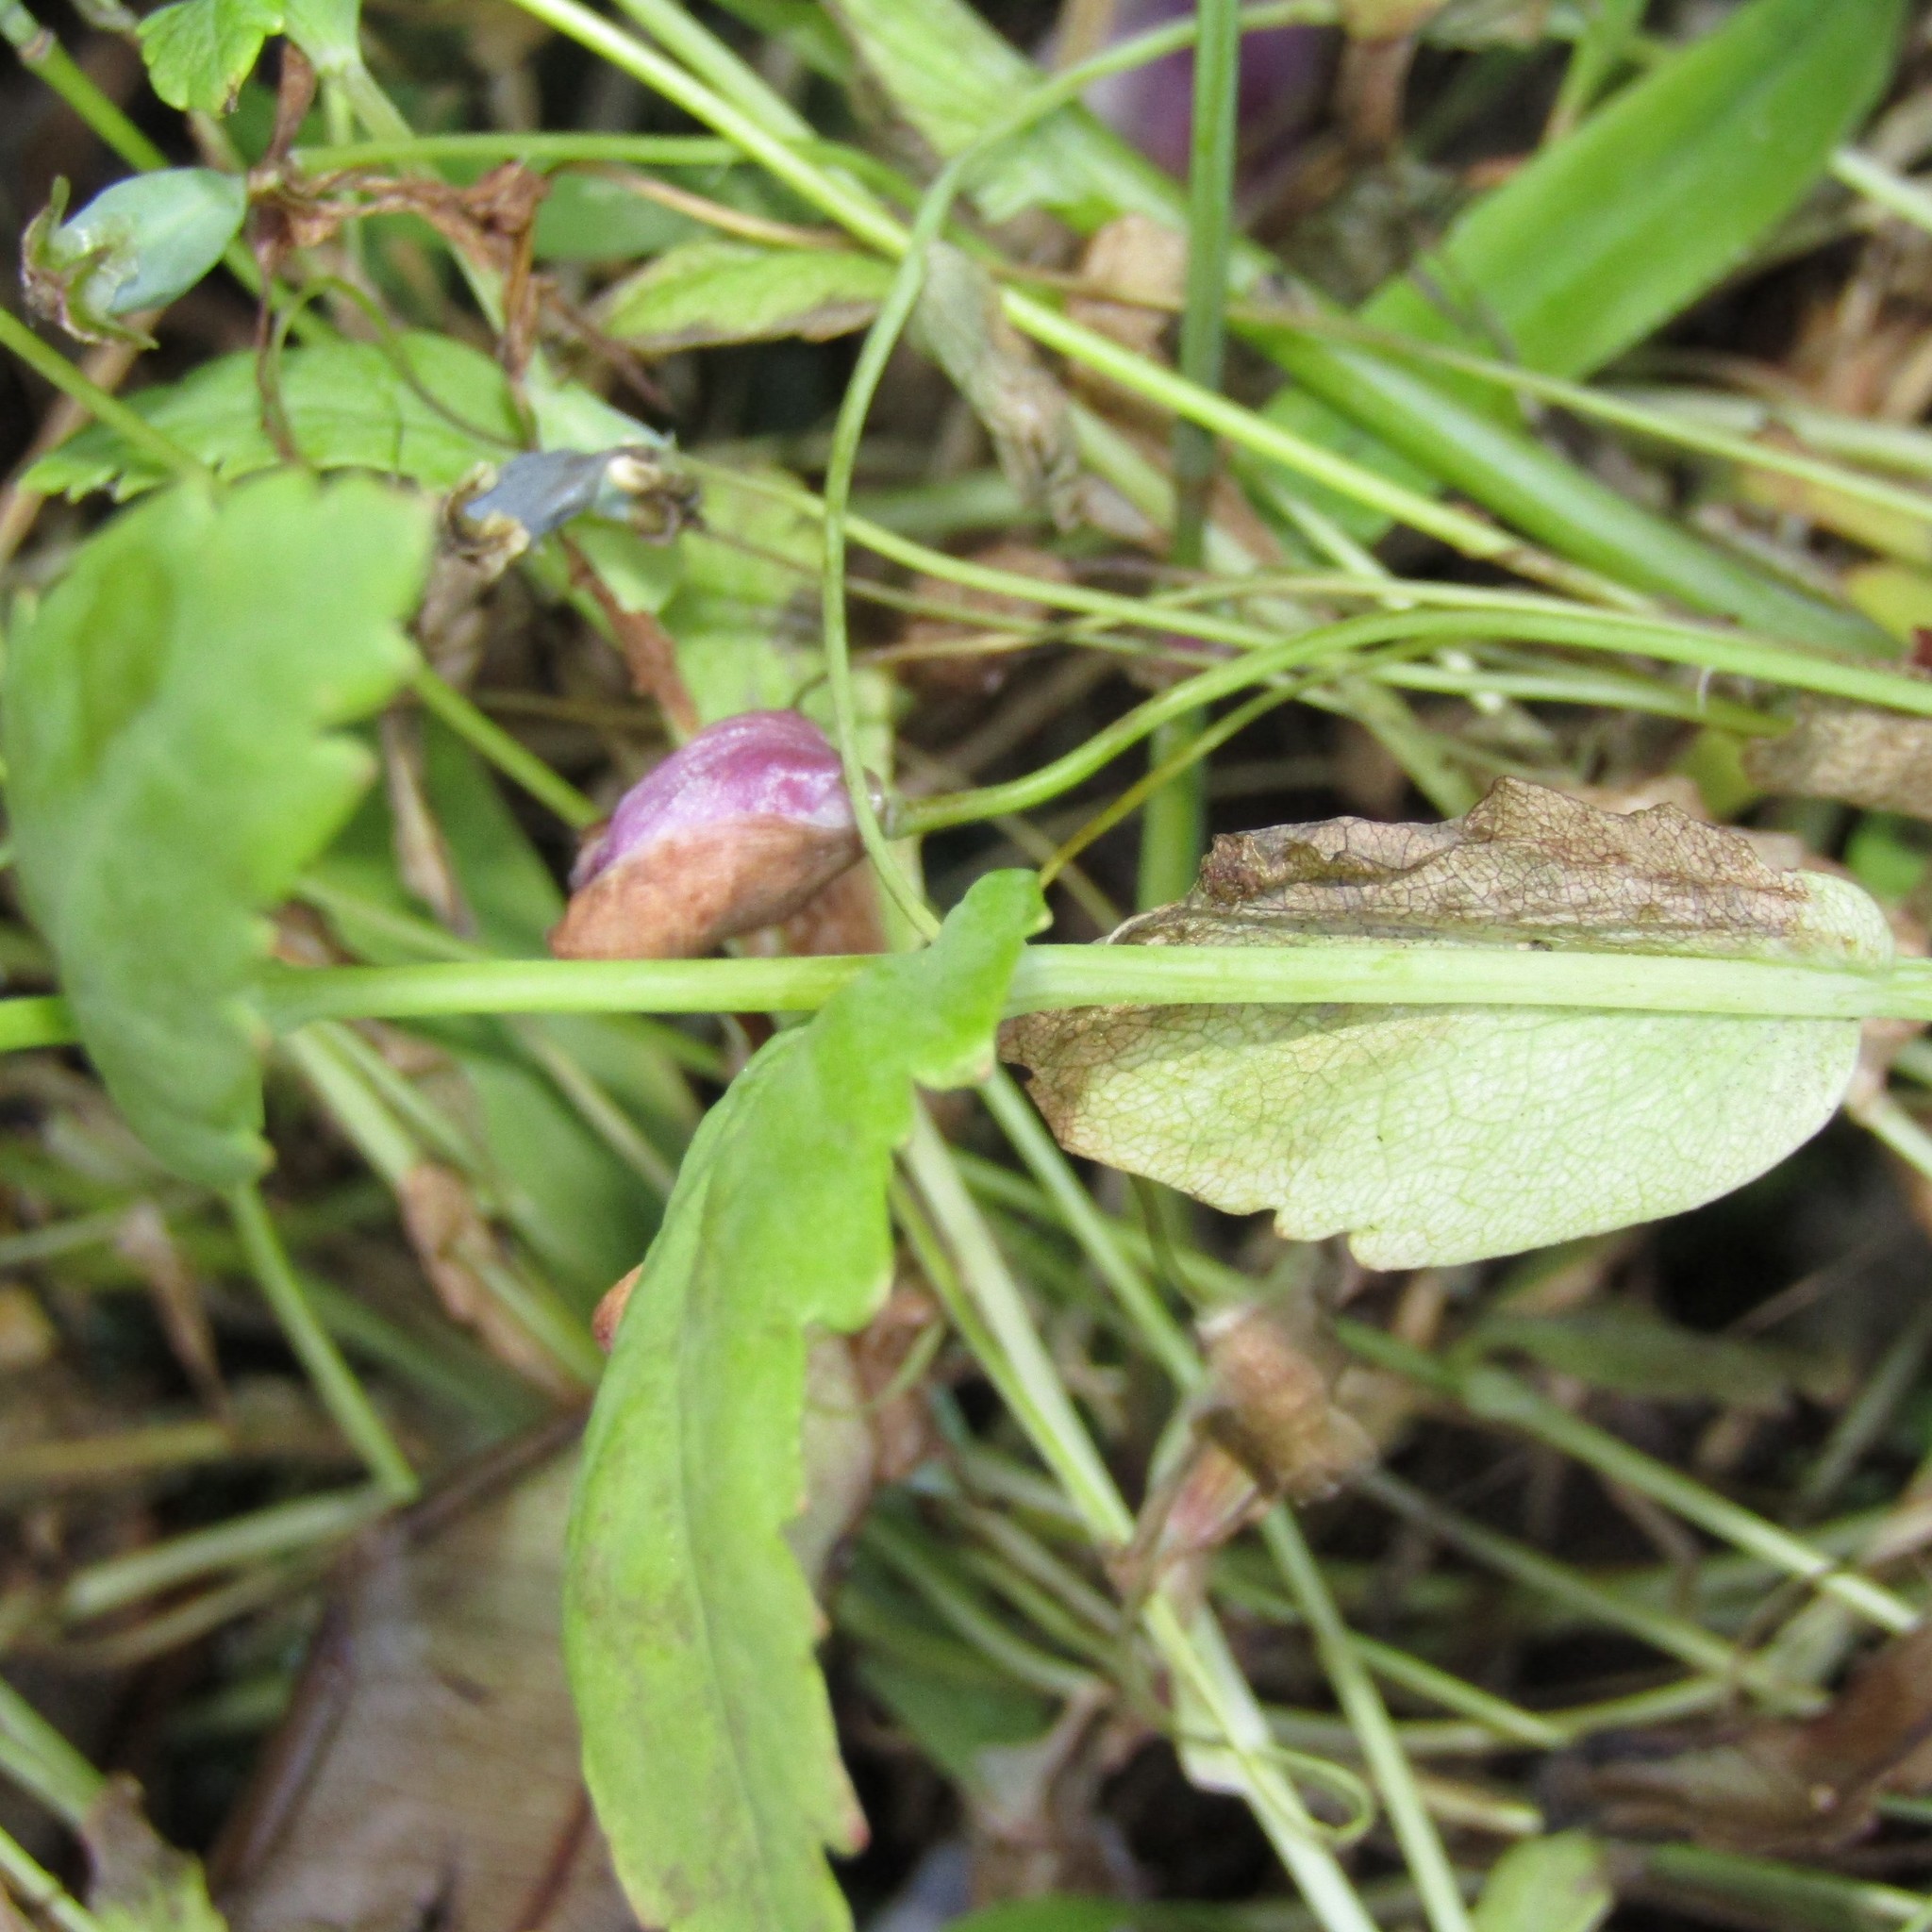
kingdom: Plantae
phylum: Tracheophyta
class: Magnoliopsida
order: Ranunculales
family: Papaveraceae
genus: Papaver
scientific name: Papaver somniferum
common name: Opium poppy
